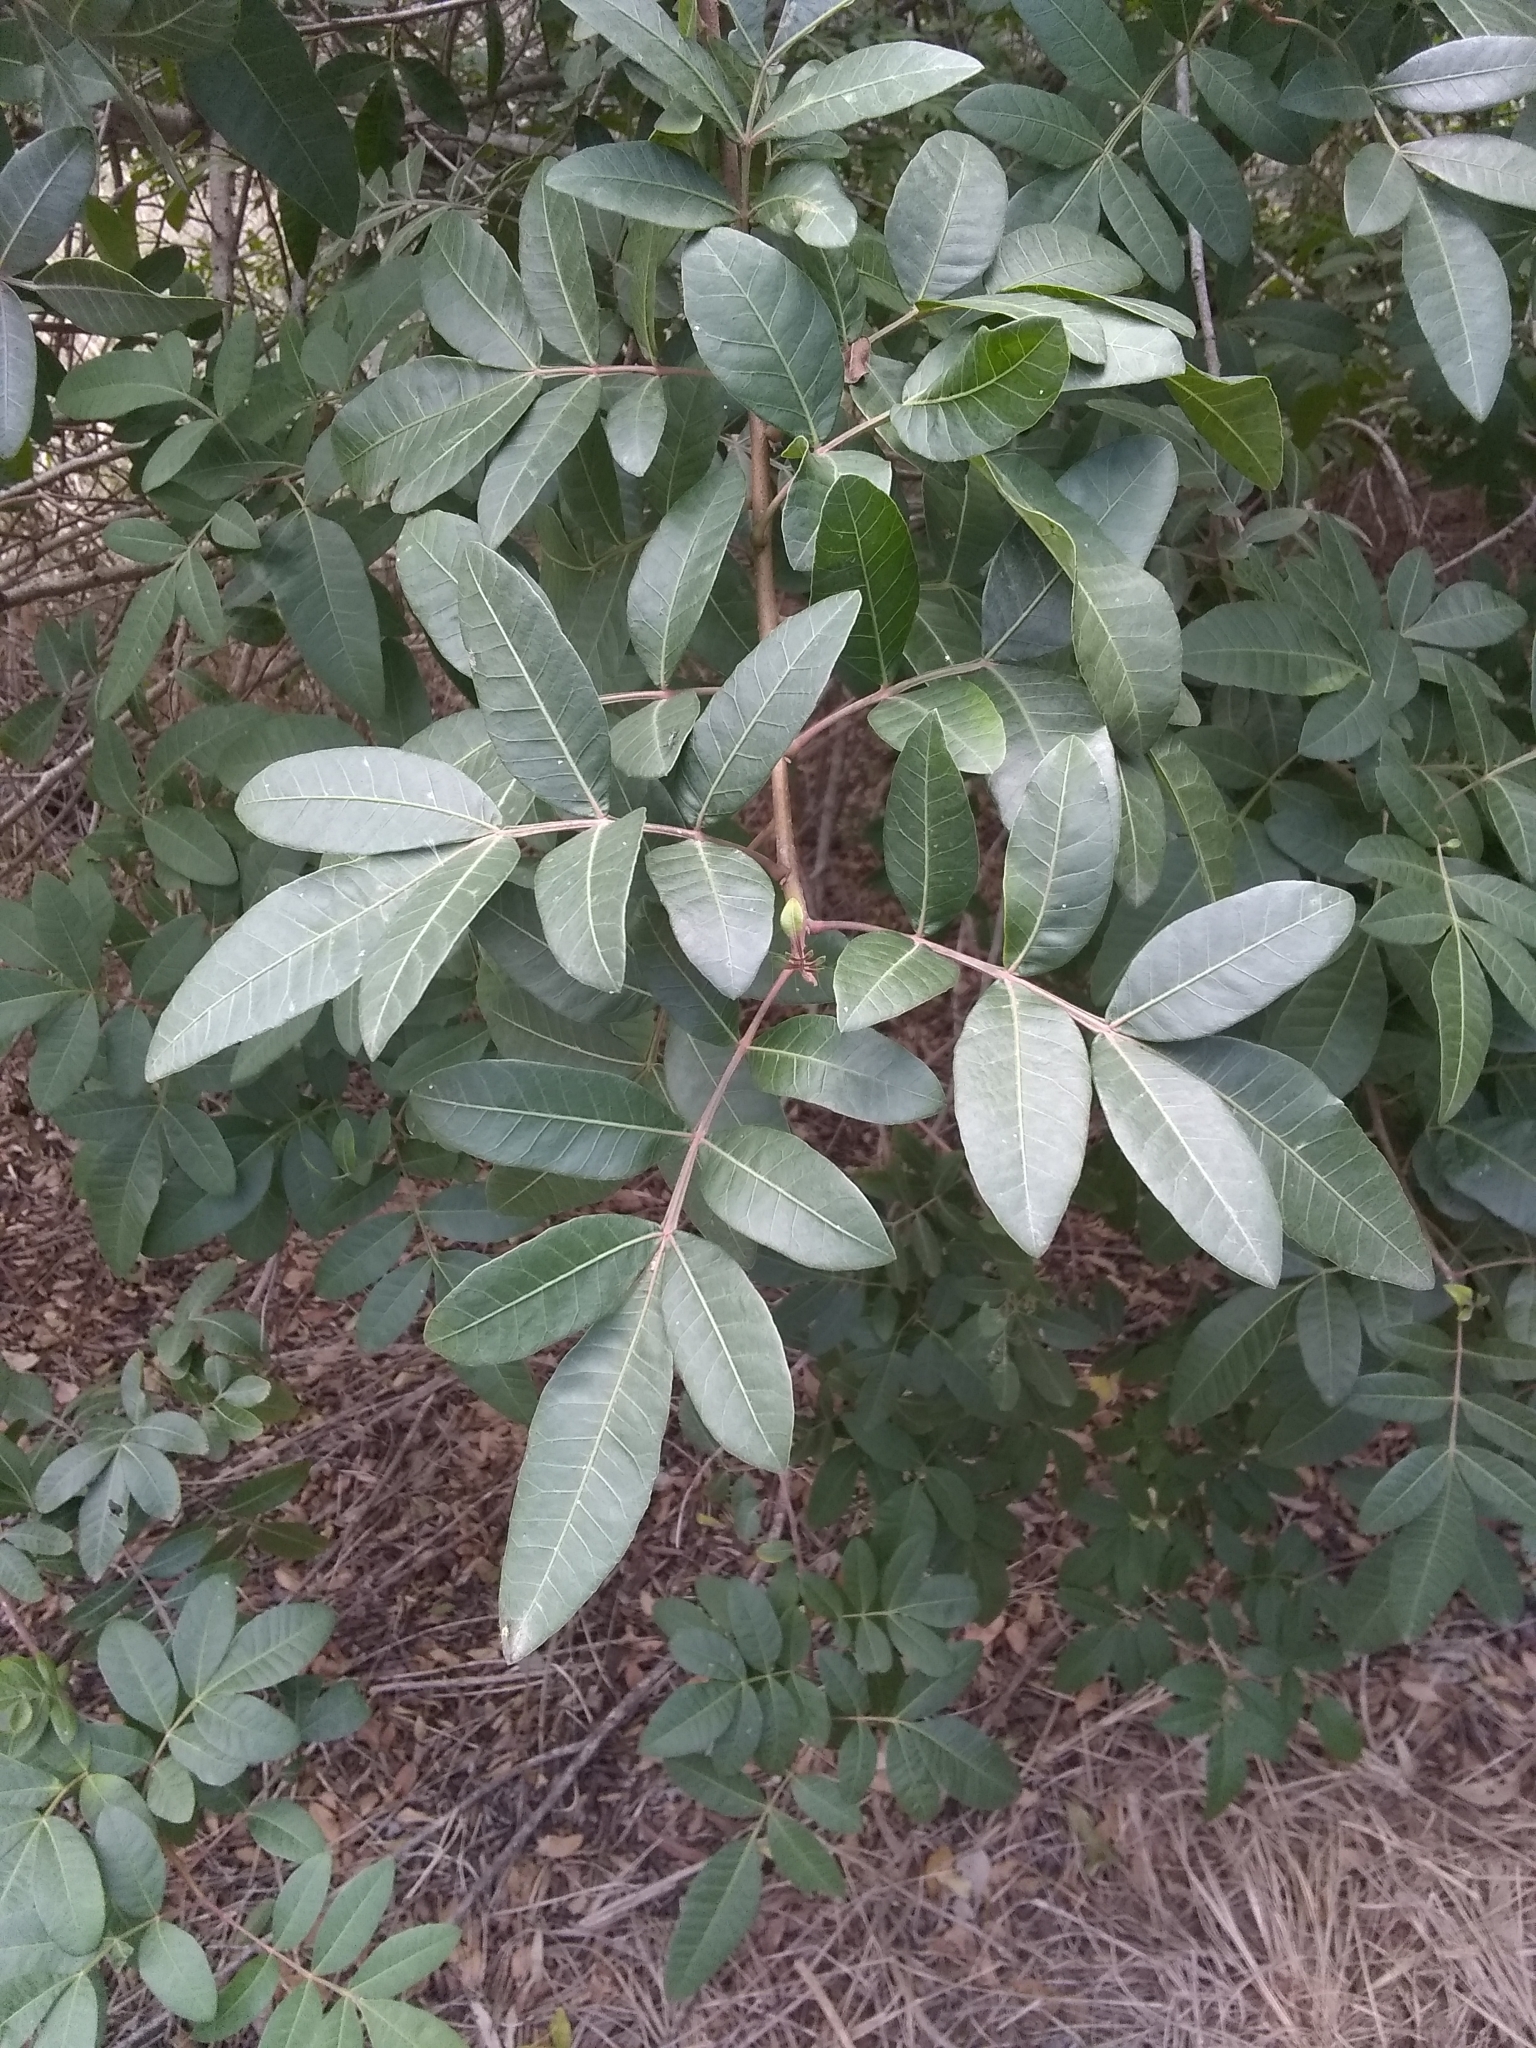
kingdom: Plantae
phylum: Tracheophyta
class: Magnoliopsida
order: Sapindales
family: Anacardiaceae
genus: Schinus
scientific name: Schinus terebinthifolia
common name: Brazilian peppertree
